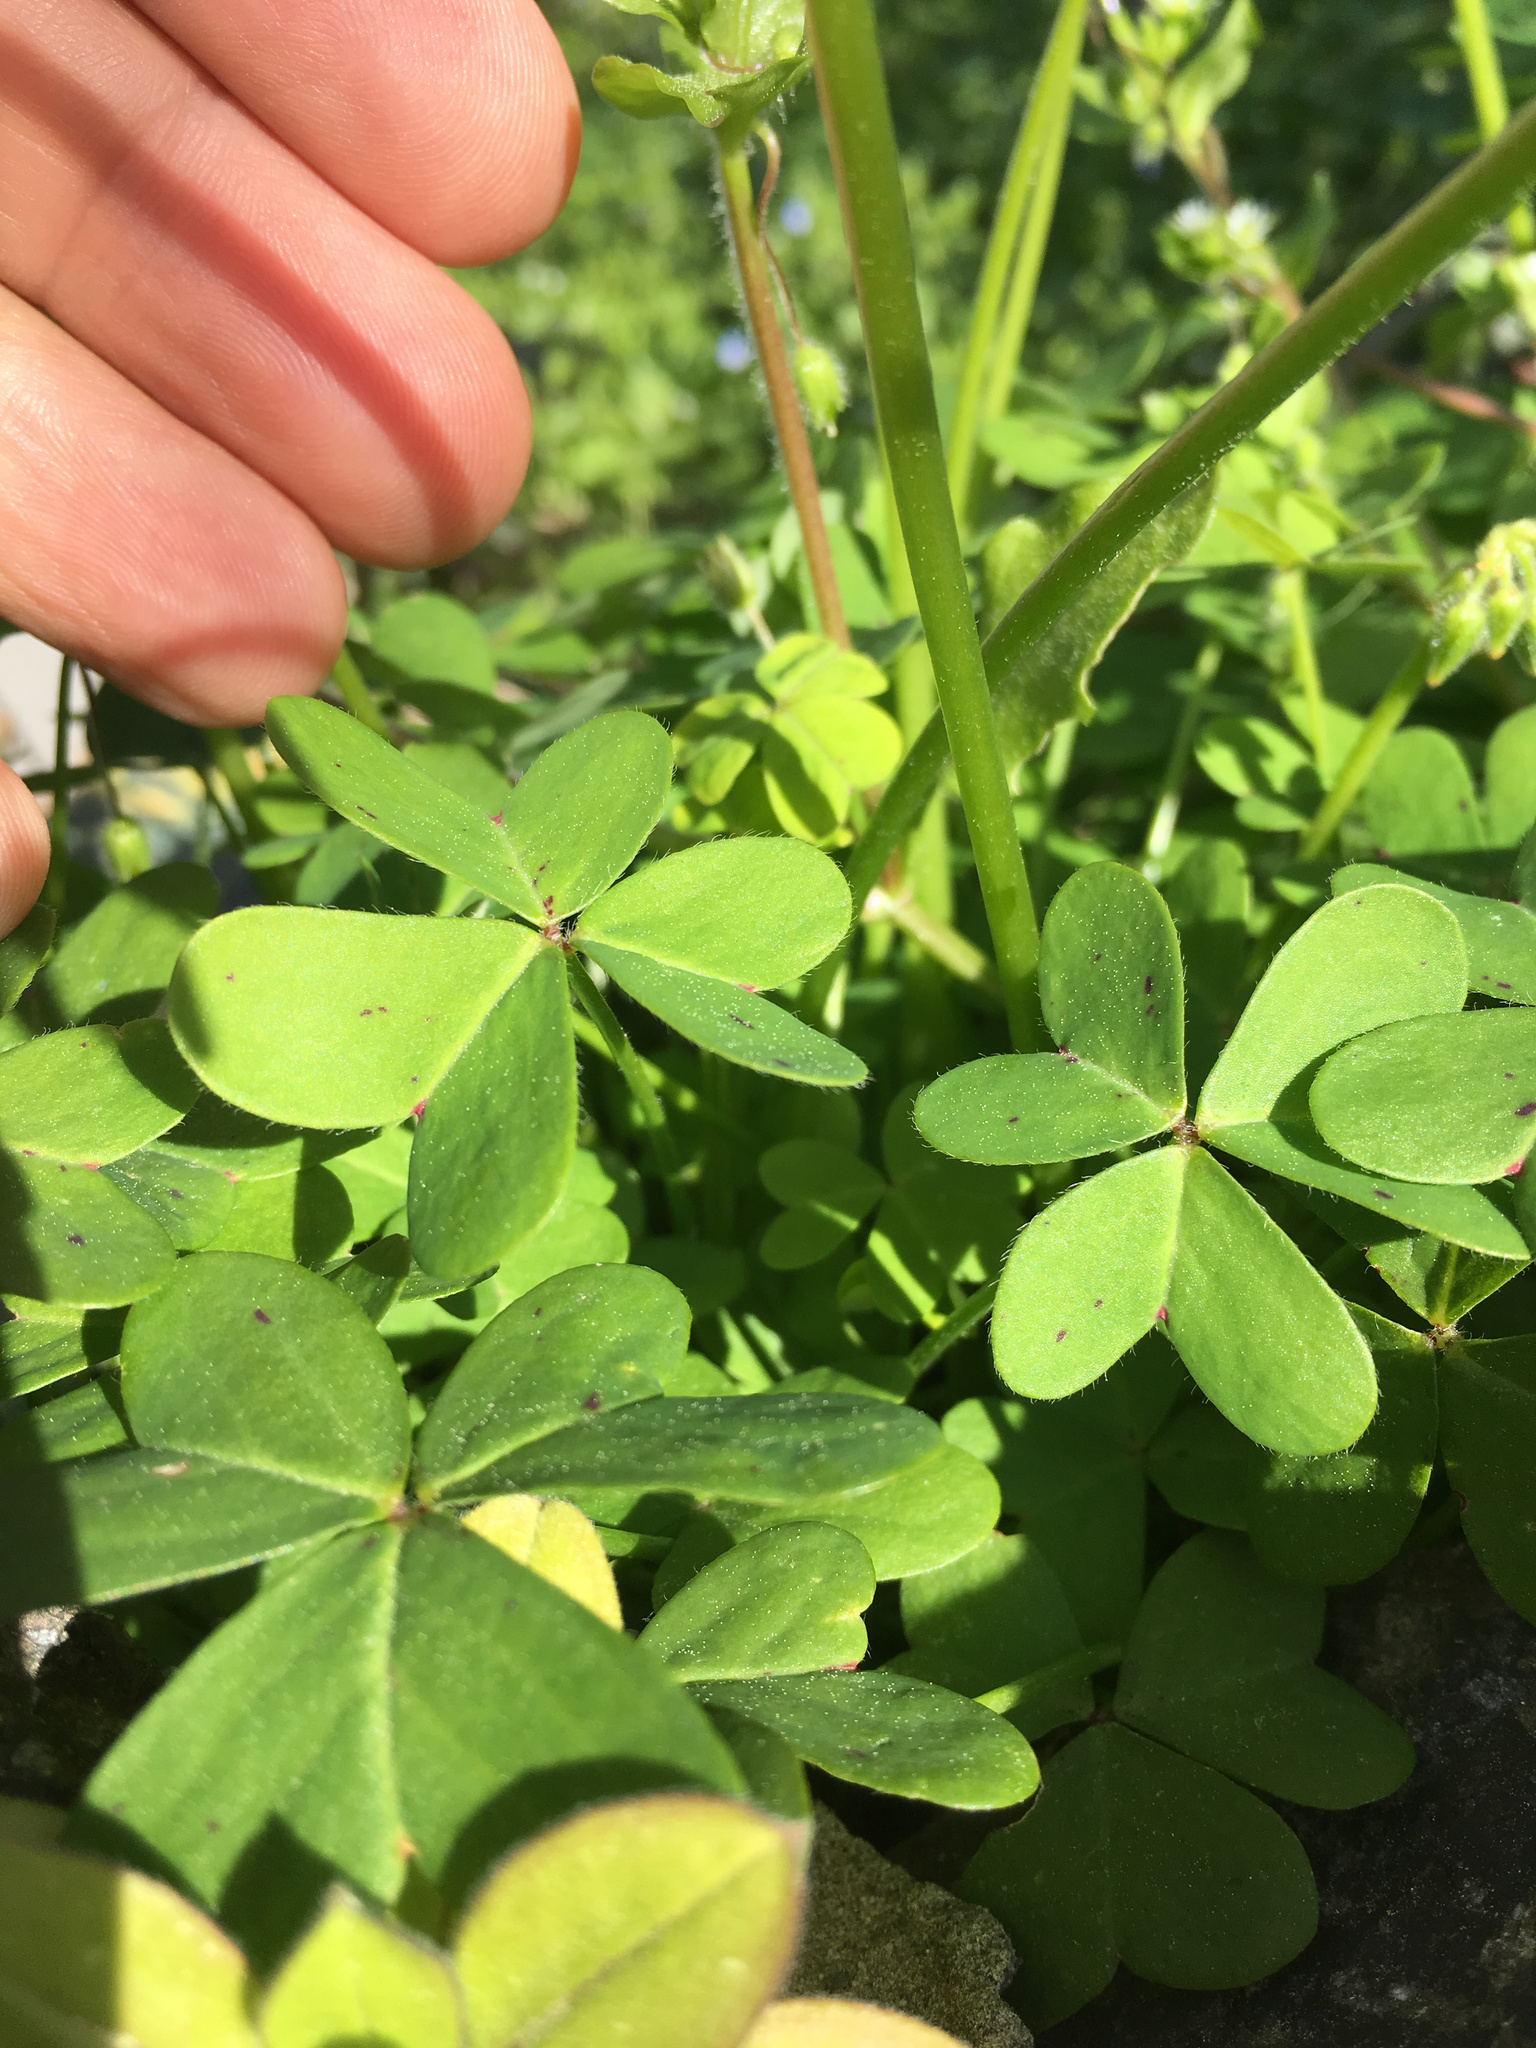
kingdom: Plantae
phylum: Tracheophyta
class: Magnoliopsida
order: Oxalidales
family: Oxalidaceae
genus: Oxalis
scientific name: Oxalis pes-caprae
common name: Bermuda-buttercup
